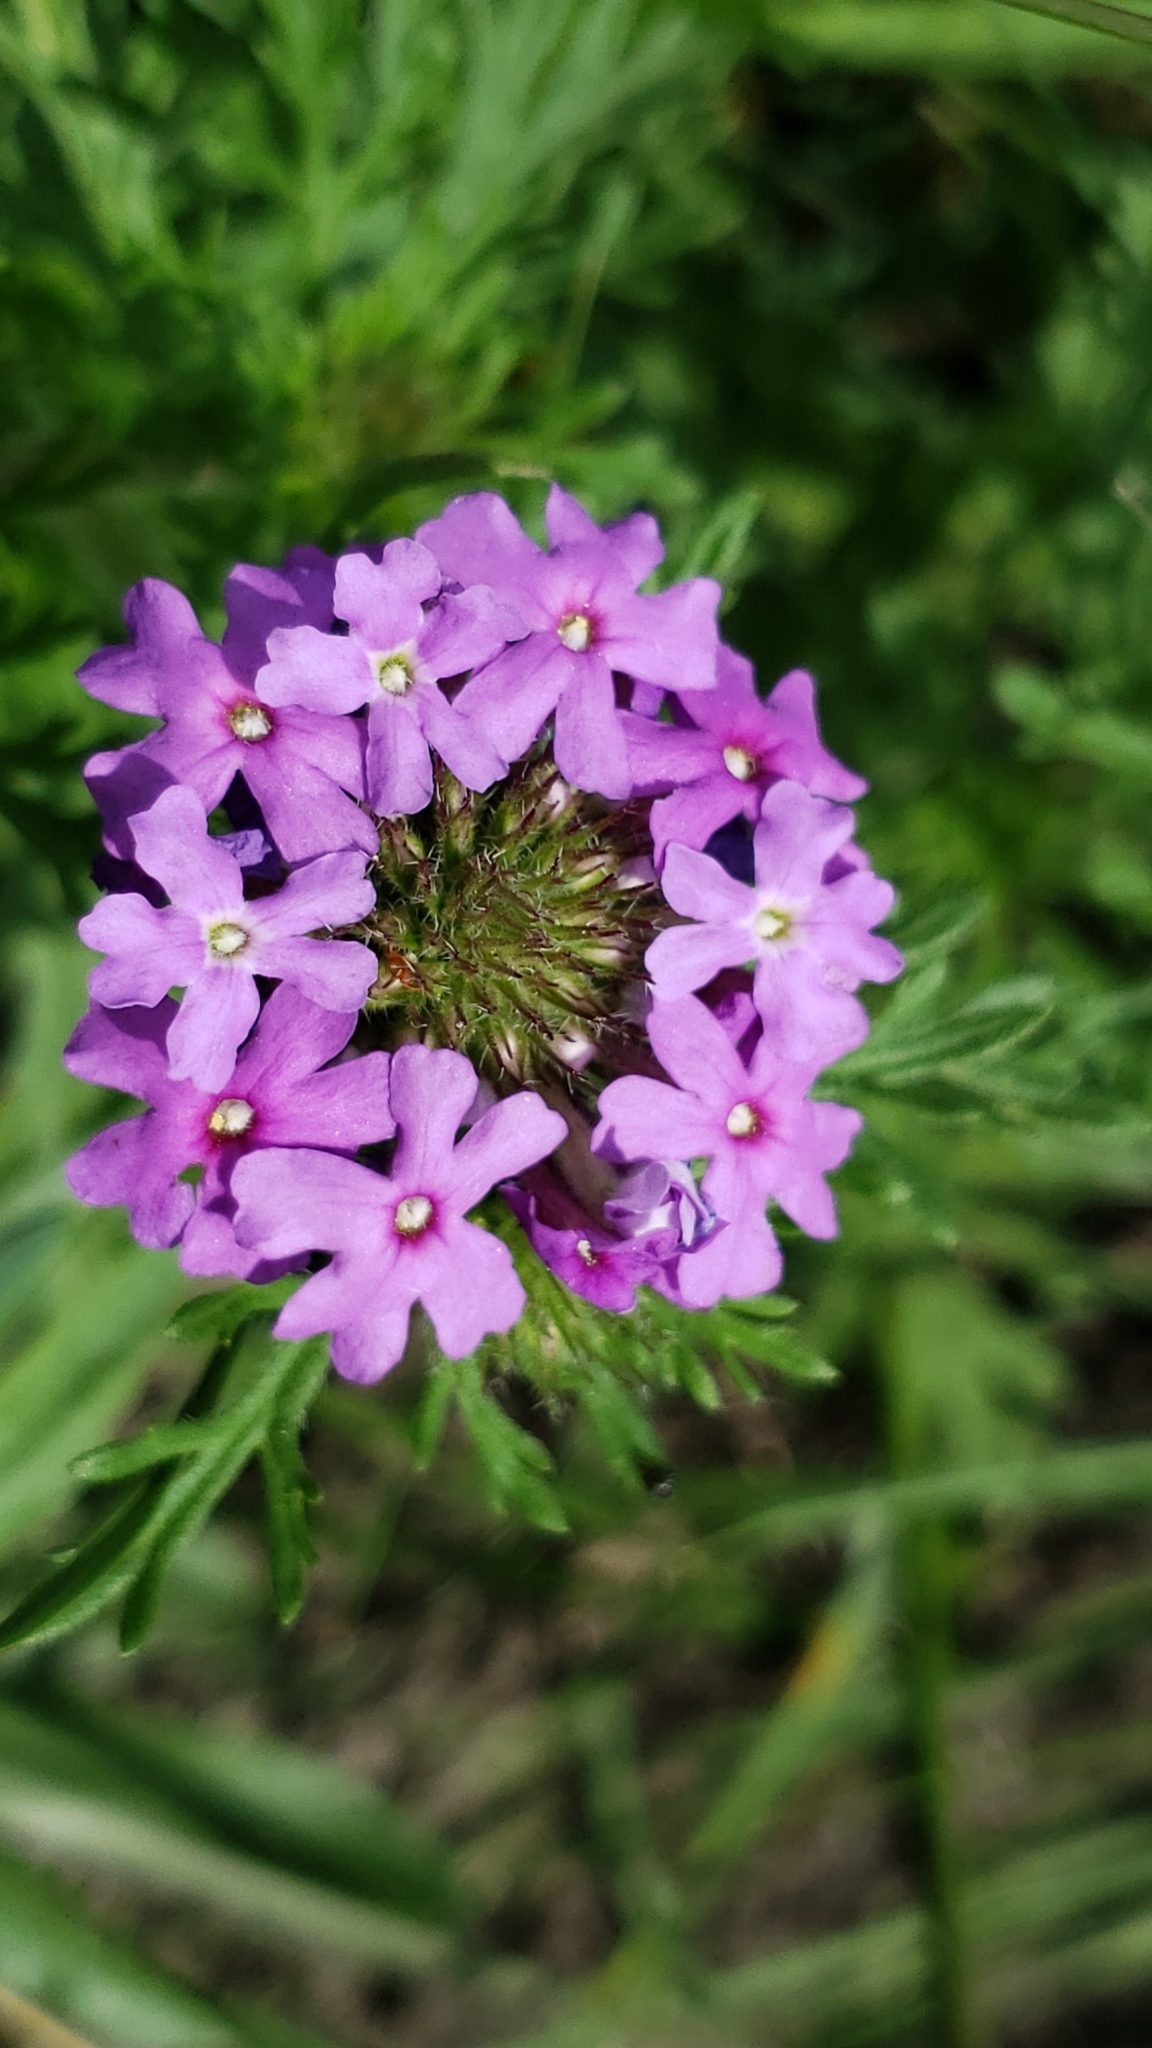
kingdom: Plantae
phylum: Tracheophyta
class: Magnoliopsida
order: Lamiales
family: Verbenaceae
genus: Verbena
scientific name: Verbena bipinnatifida
